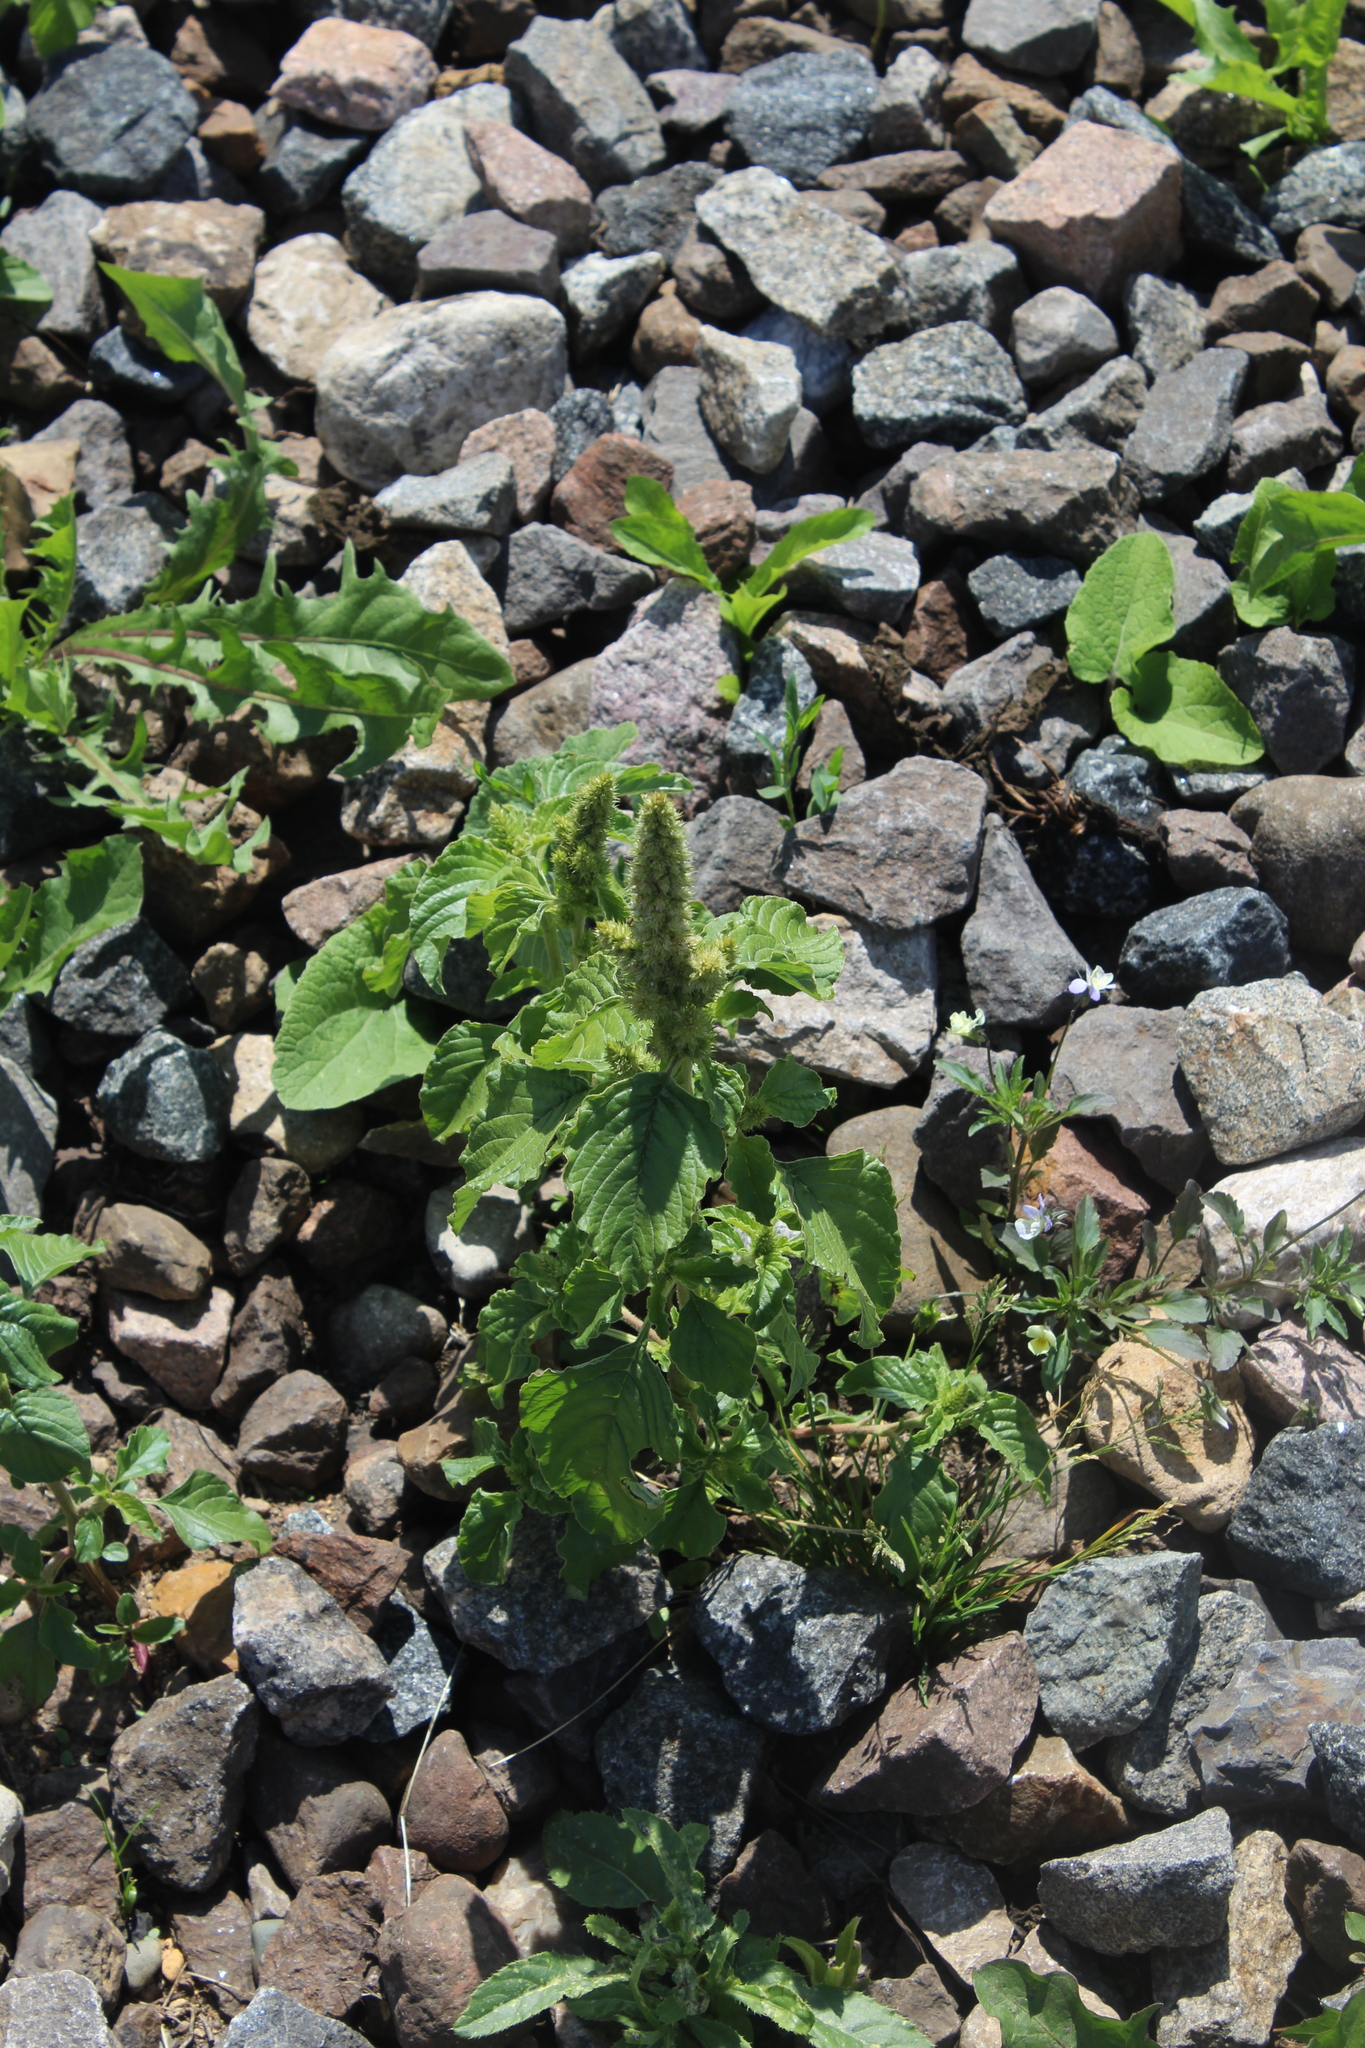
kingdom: Plantae
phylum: Tracheophyta
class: Magnoliopsida
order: Caryophyllales
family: Amaranthaceae
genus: Amaranthus
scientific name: Amaranthus retroflexus
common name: Redroot amaranth
